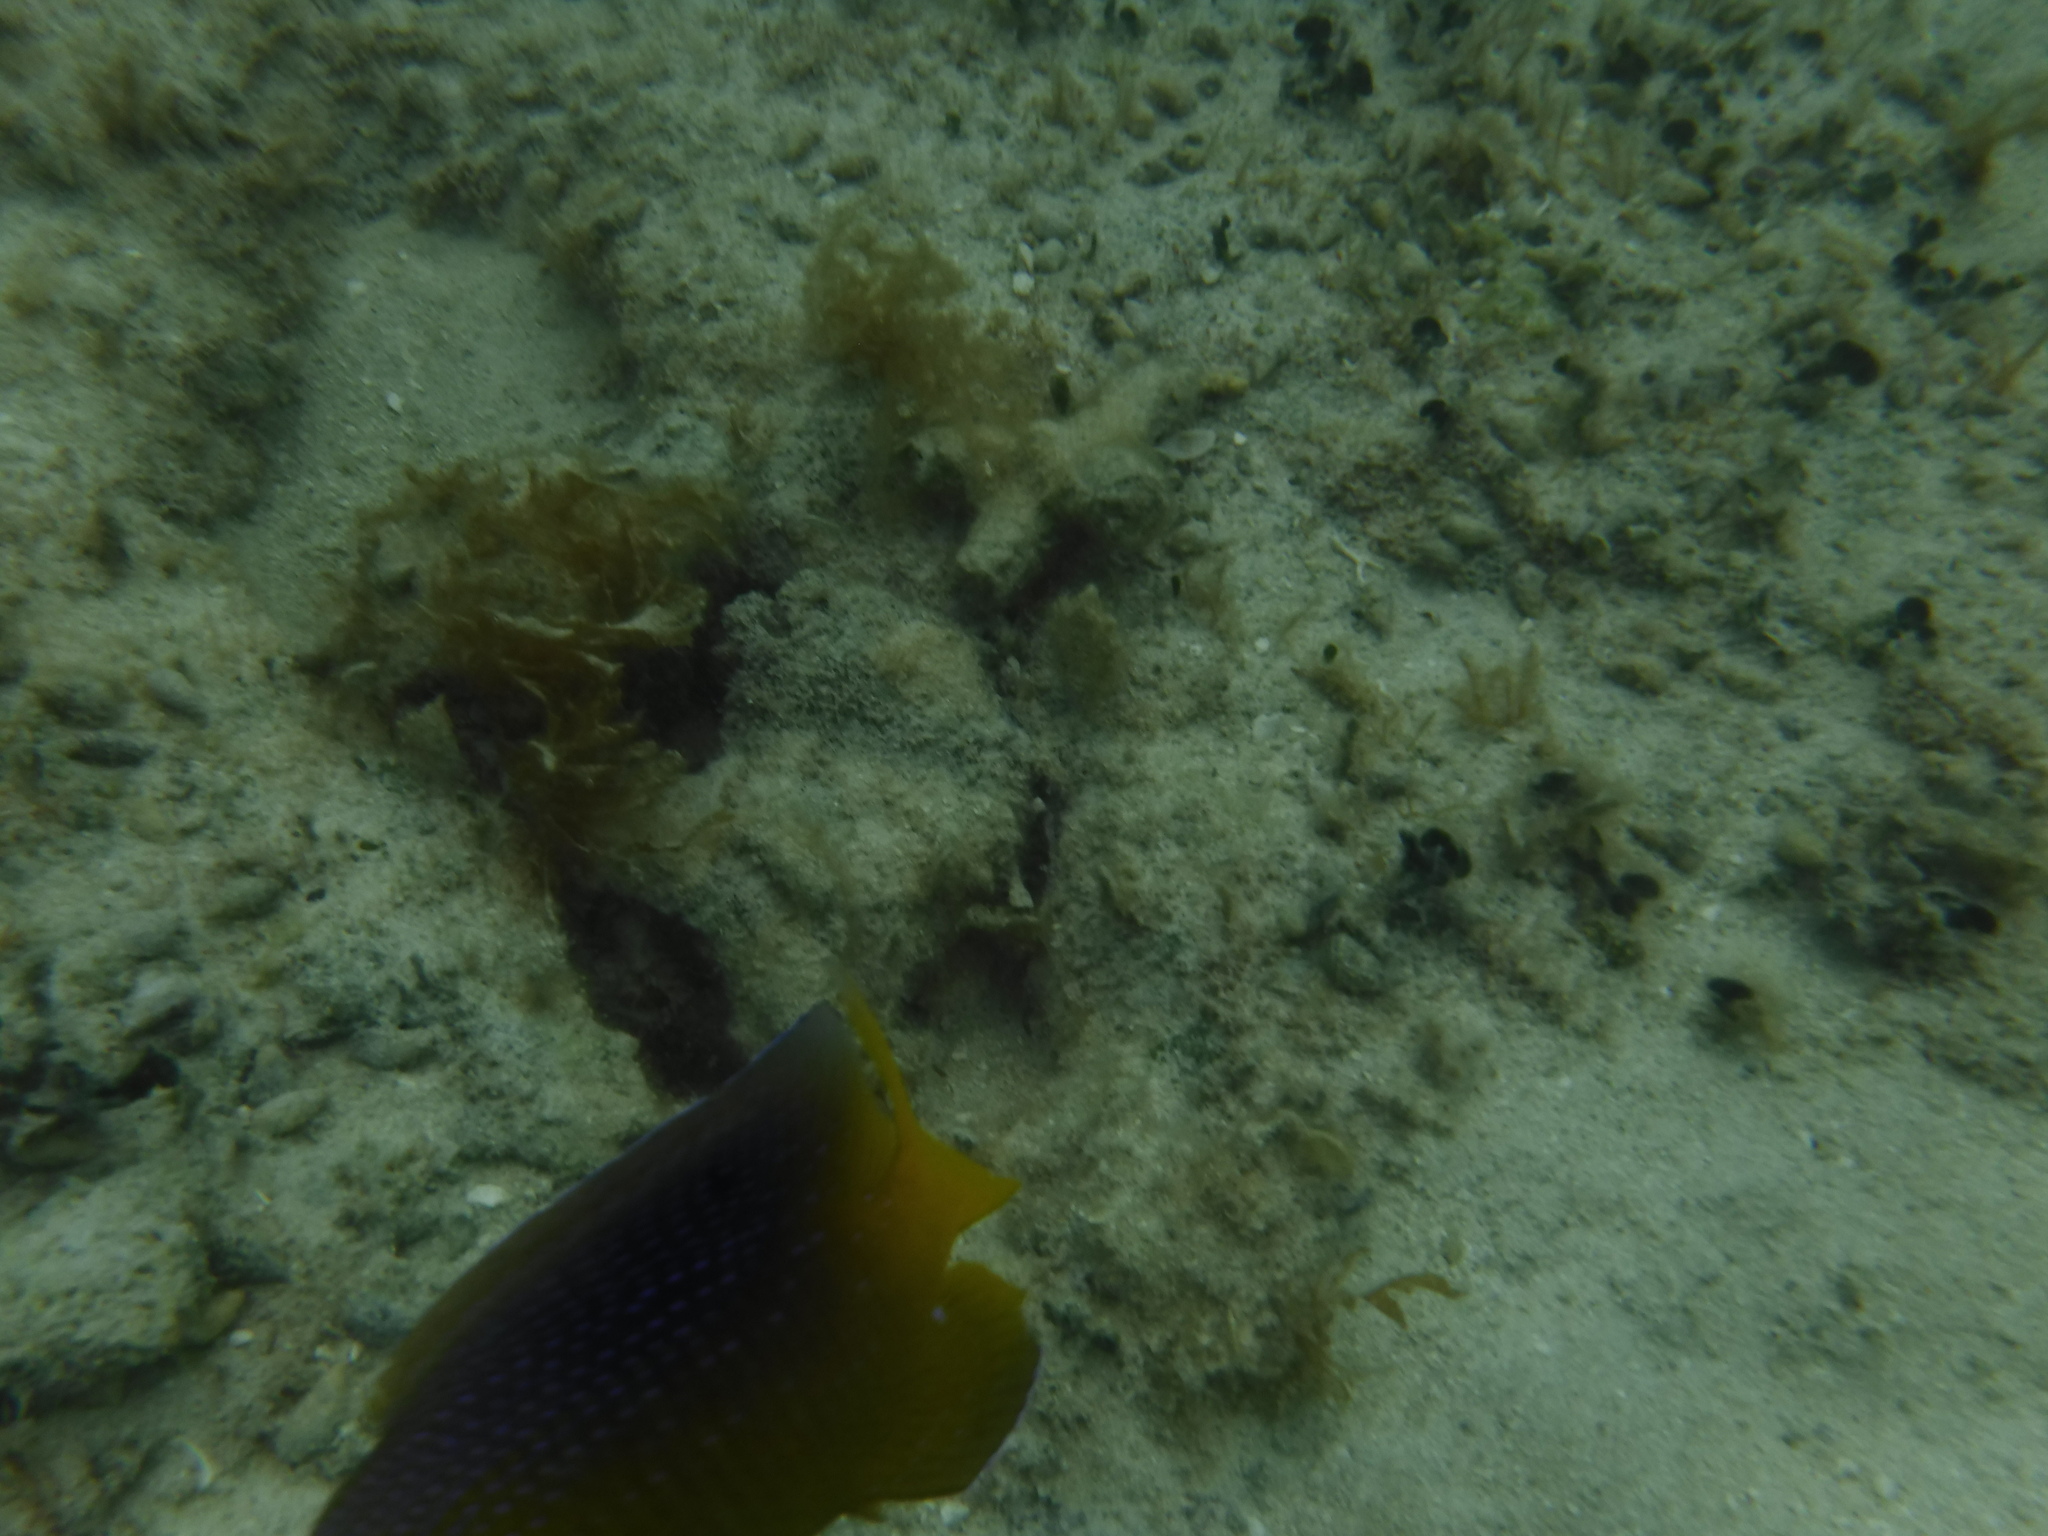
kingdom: Animalia
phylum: Chordata
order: Perciformes
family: Pomacentridae
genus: Stegastes
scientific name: Stegastes leucostictus
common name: Beaugregory
